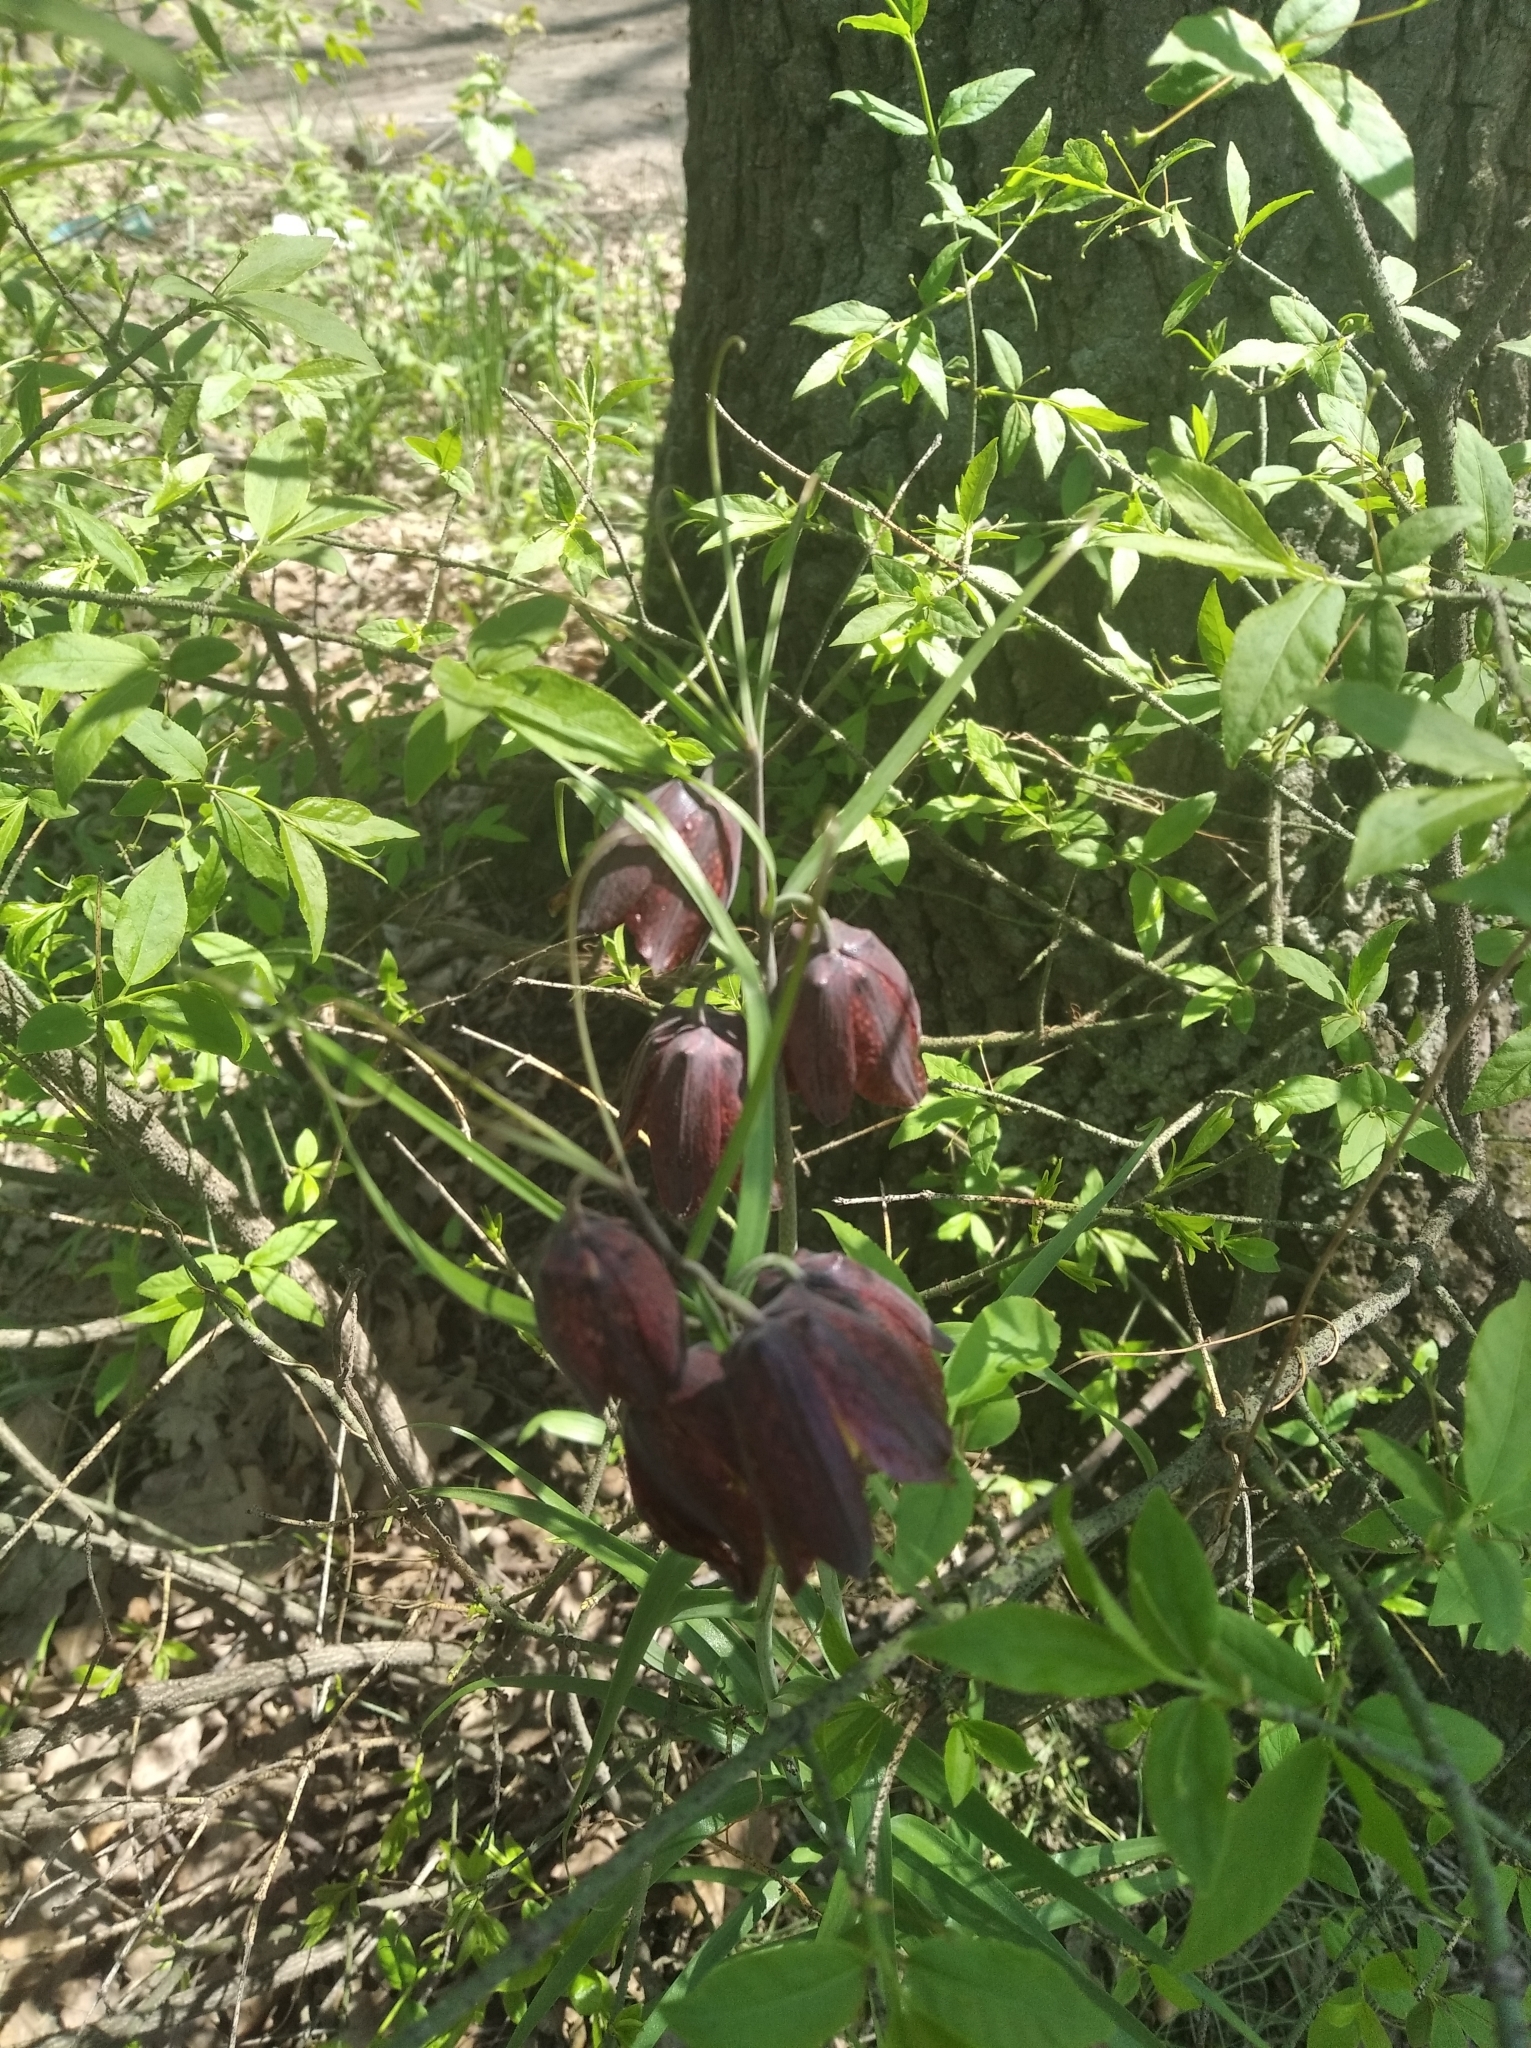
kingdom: Plantae
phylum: Tracheophyta
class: Liliopsida
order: Liliales
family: Liliaceae
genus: Fritillaria
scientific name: Fritillaria ruthenica
